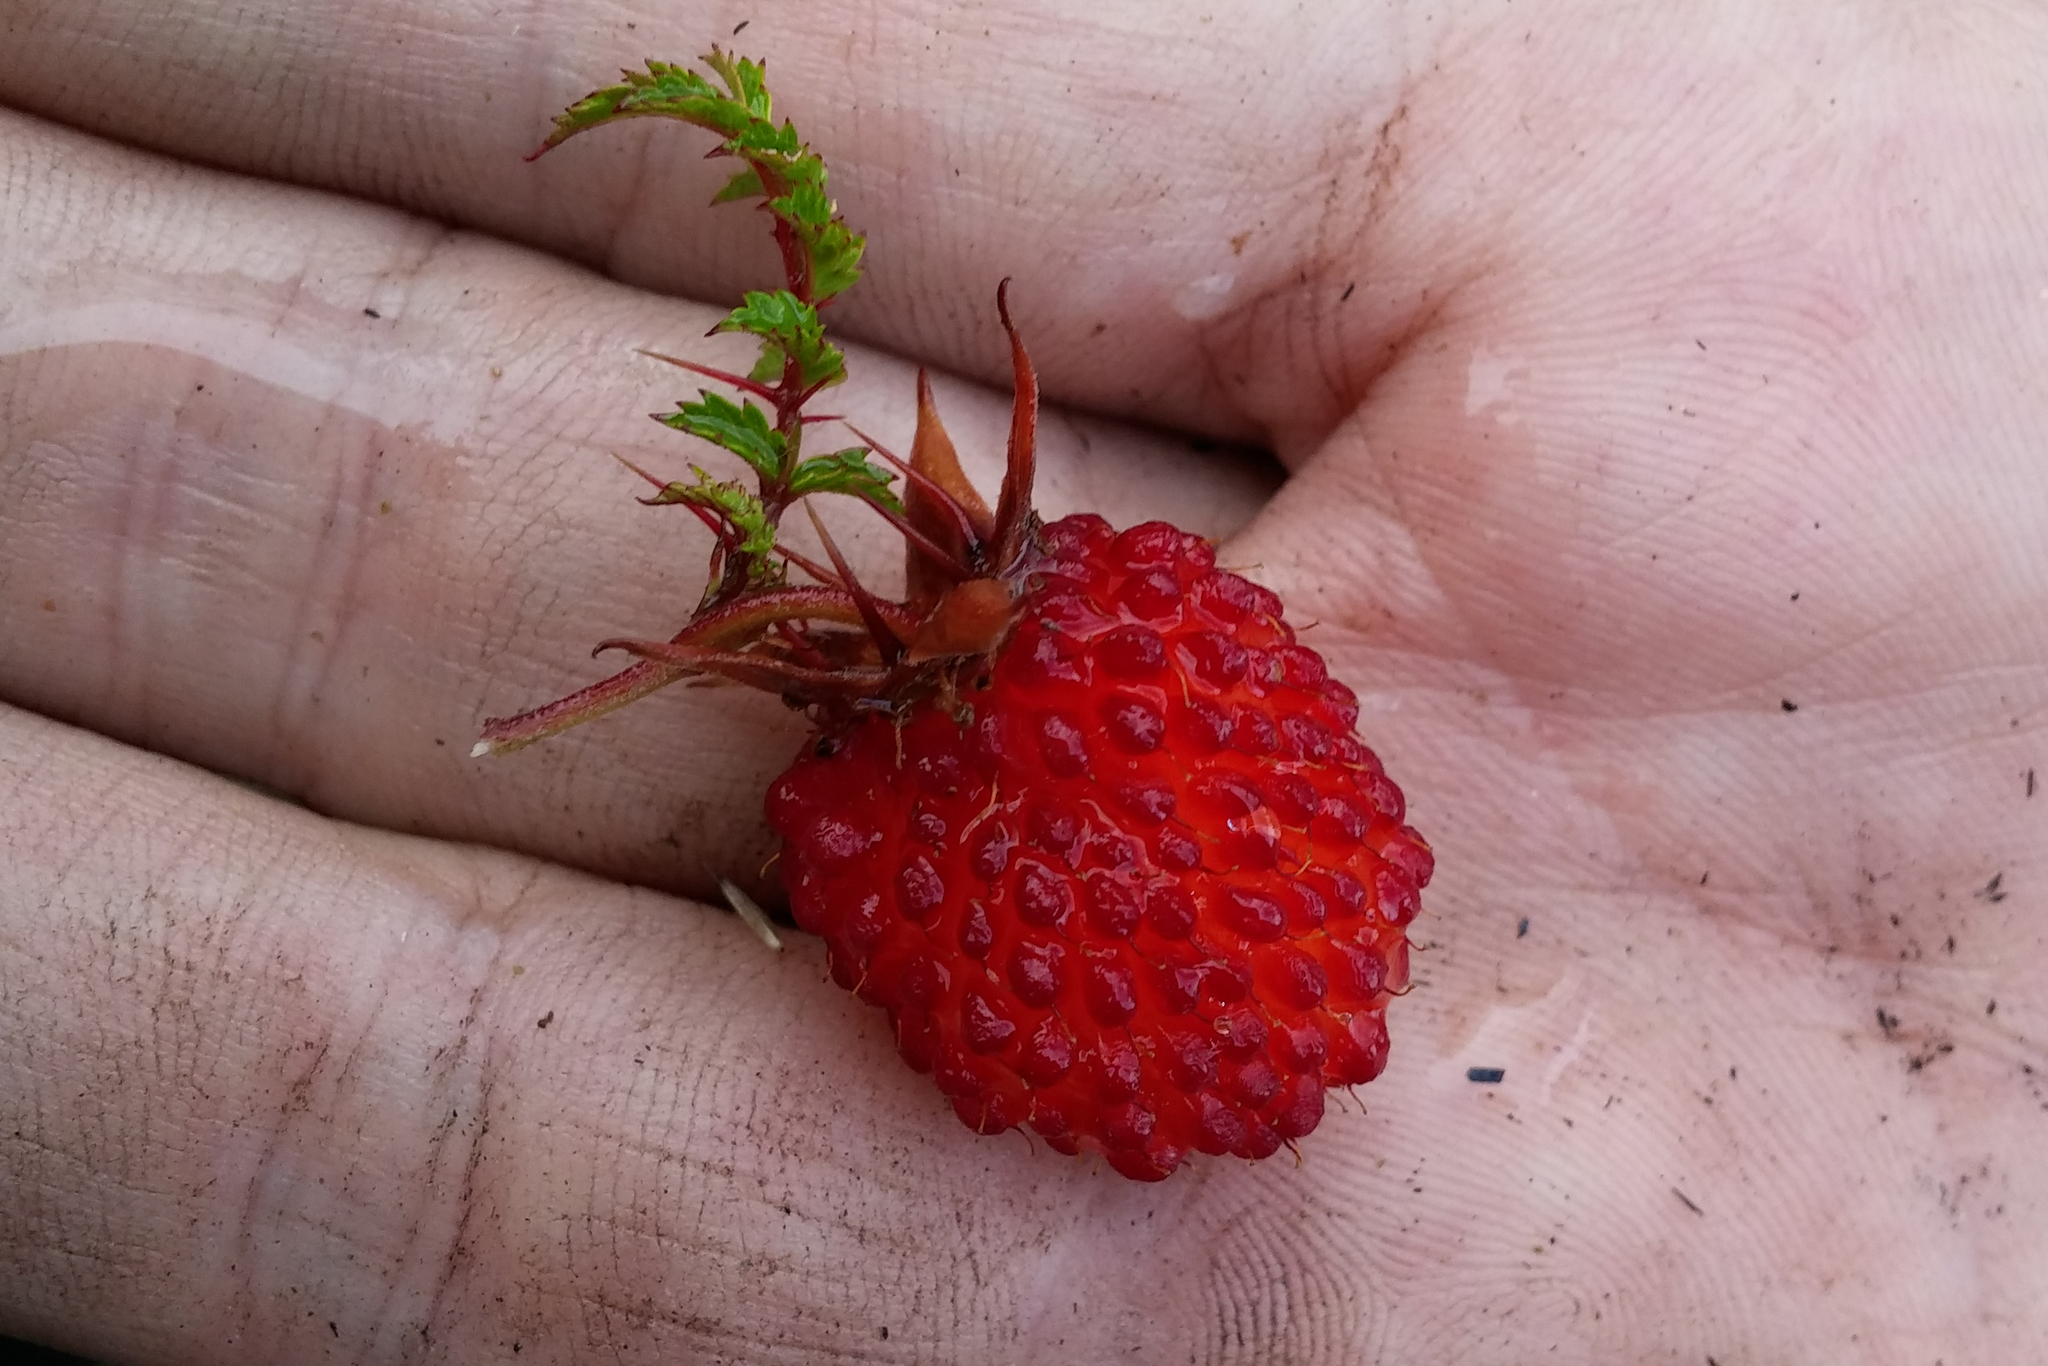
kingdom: Plantae
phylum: Tracheophyta
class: Magnoliopsida
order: Rosales
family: Rosaceae
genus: Rubus
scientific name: Rubus papuanus
